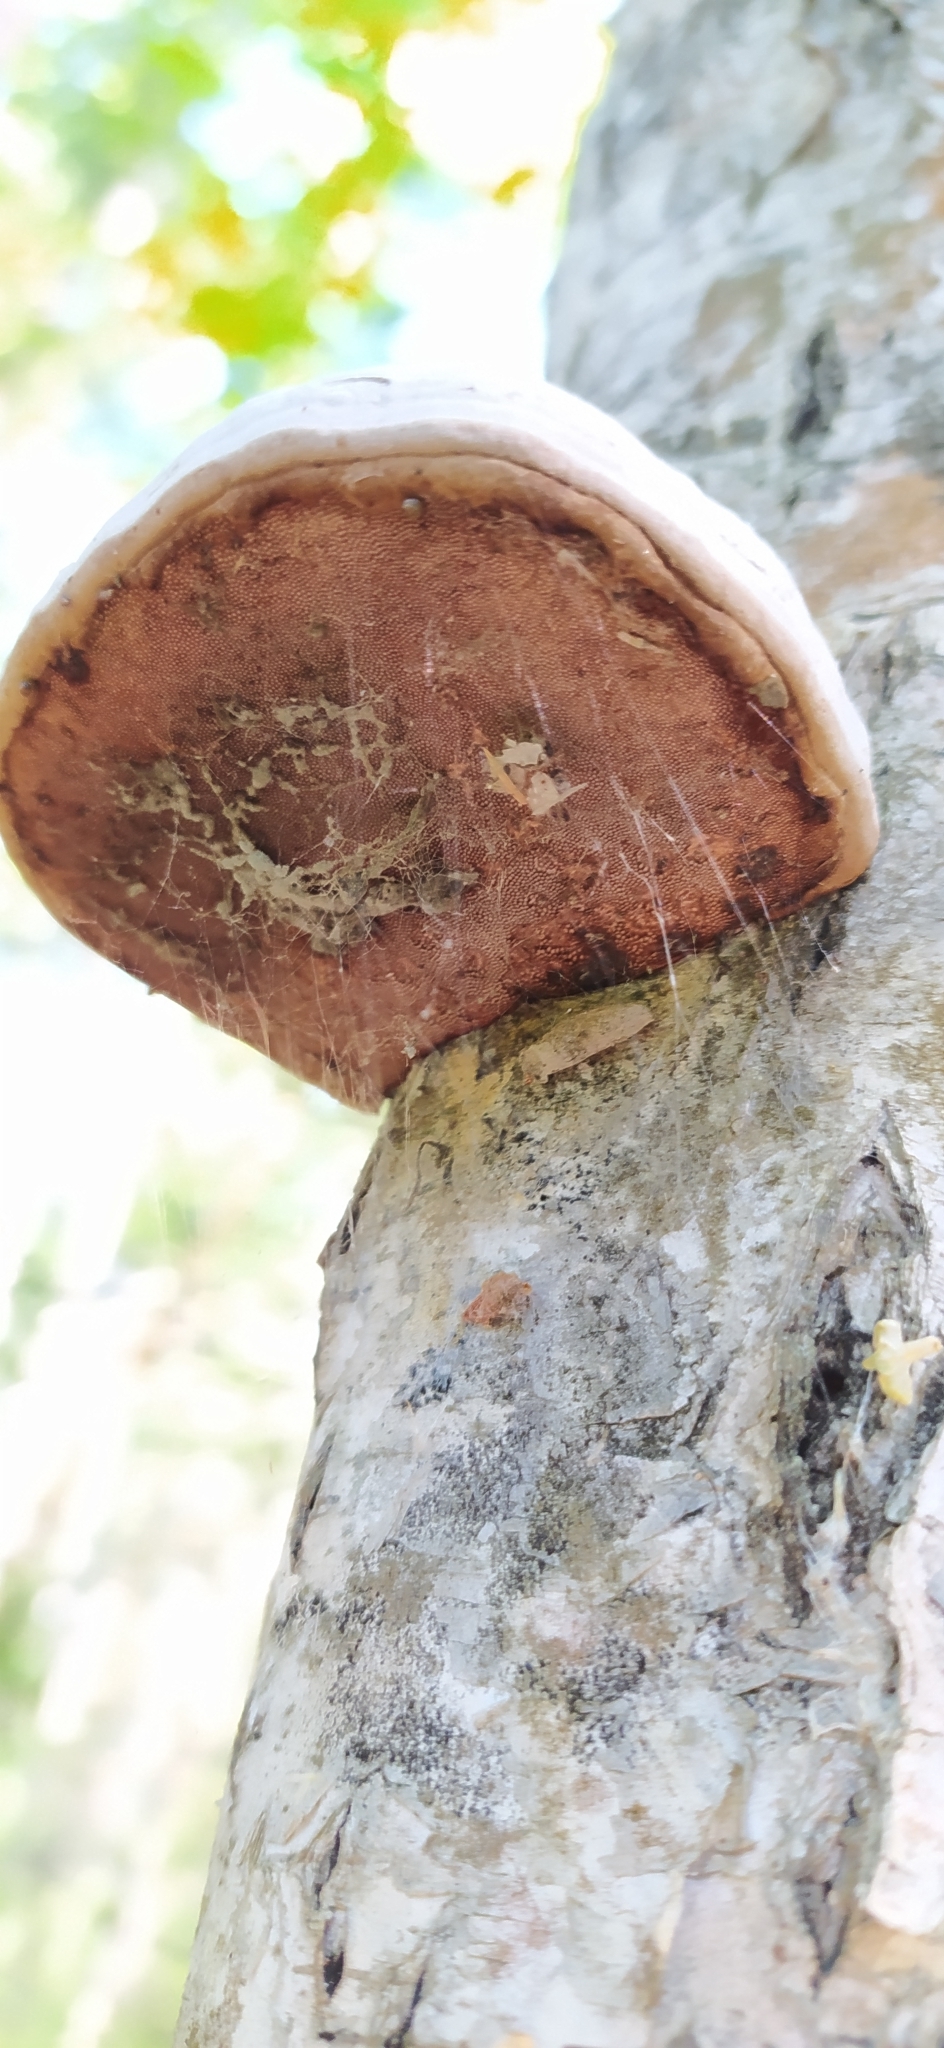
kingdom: Fungi
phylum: Basidiomycota
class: Agaricomycetes
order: Polyporales
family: Polyporaceae
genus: Fomes
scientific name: Fomes fomentarius
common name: Hoof fungus
